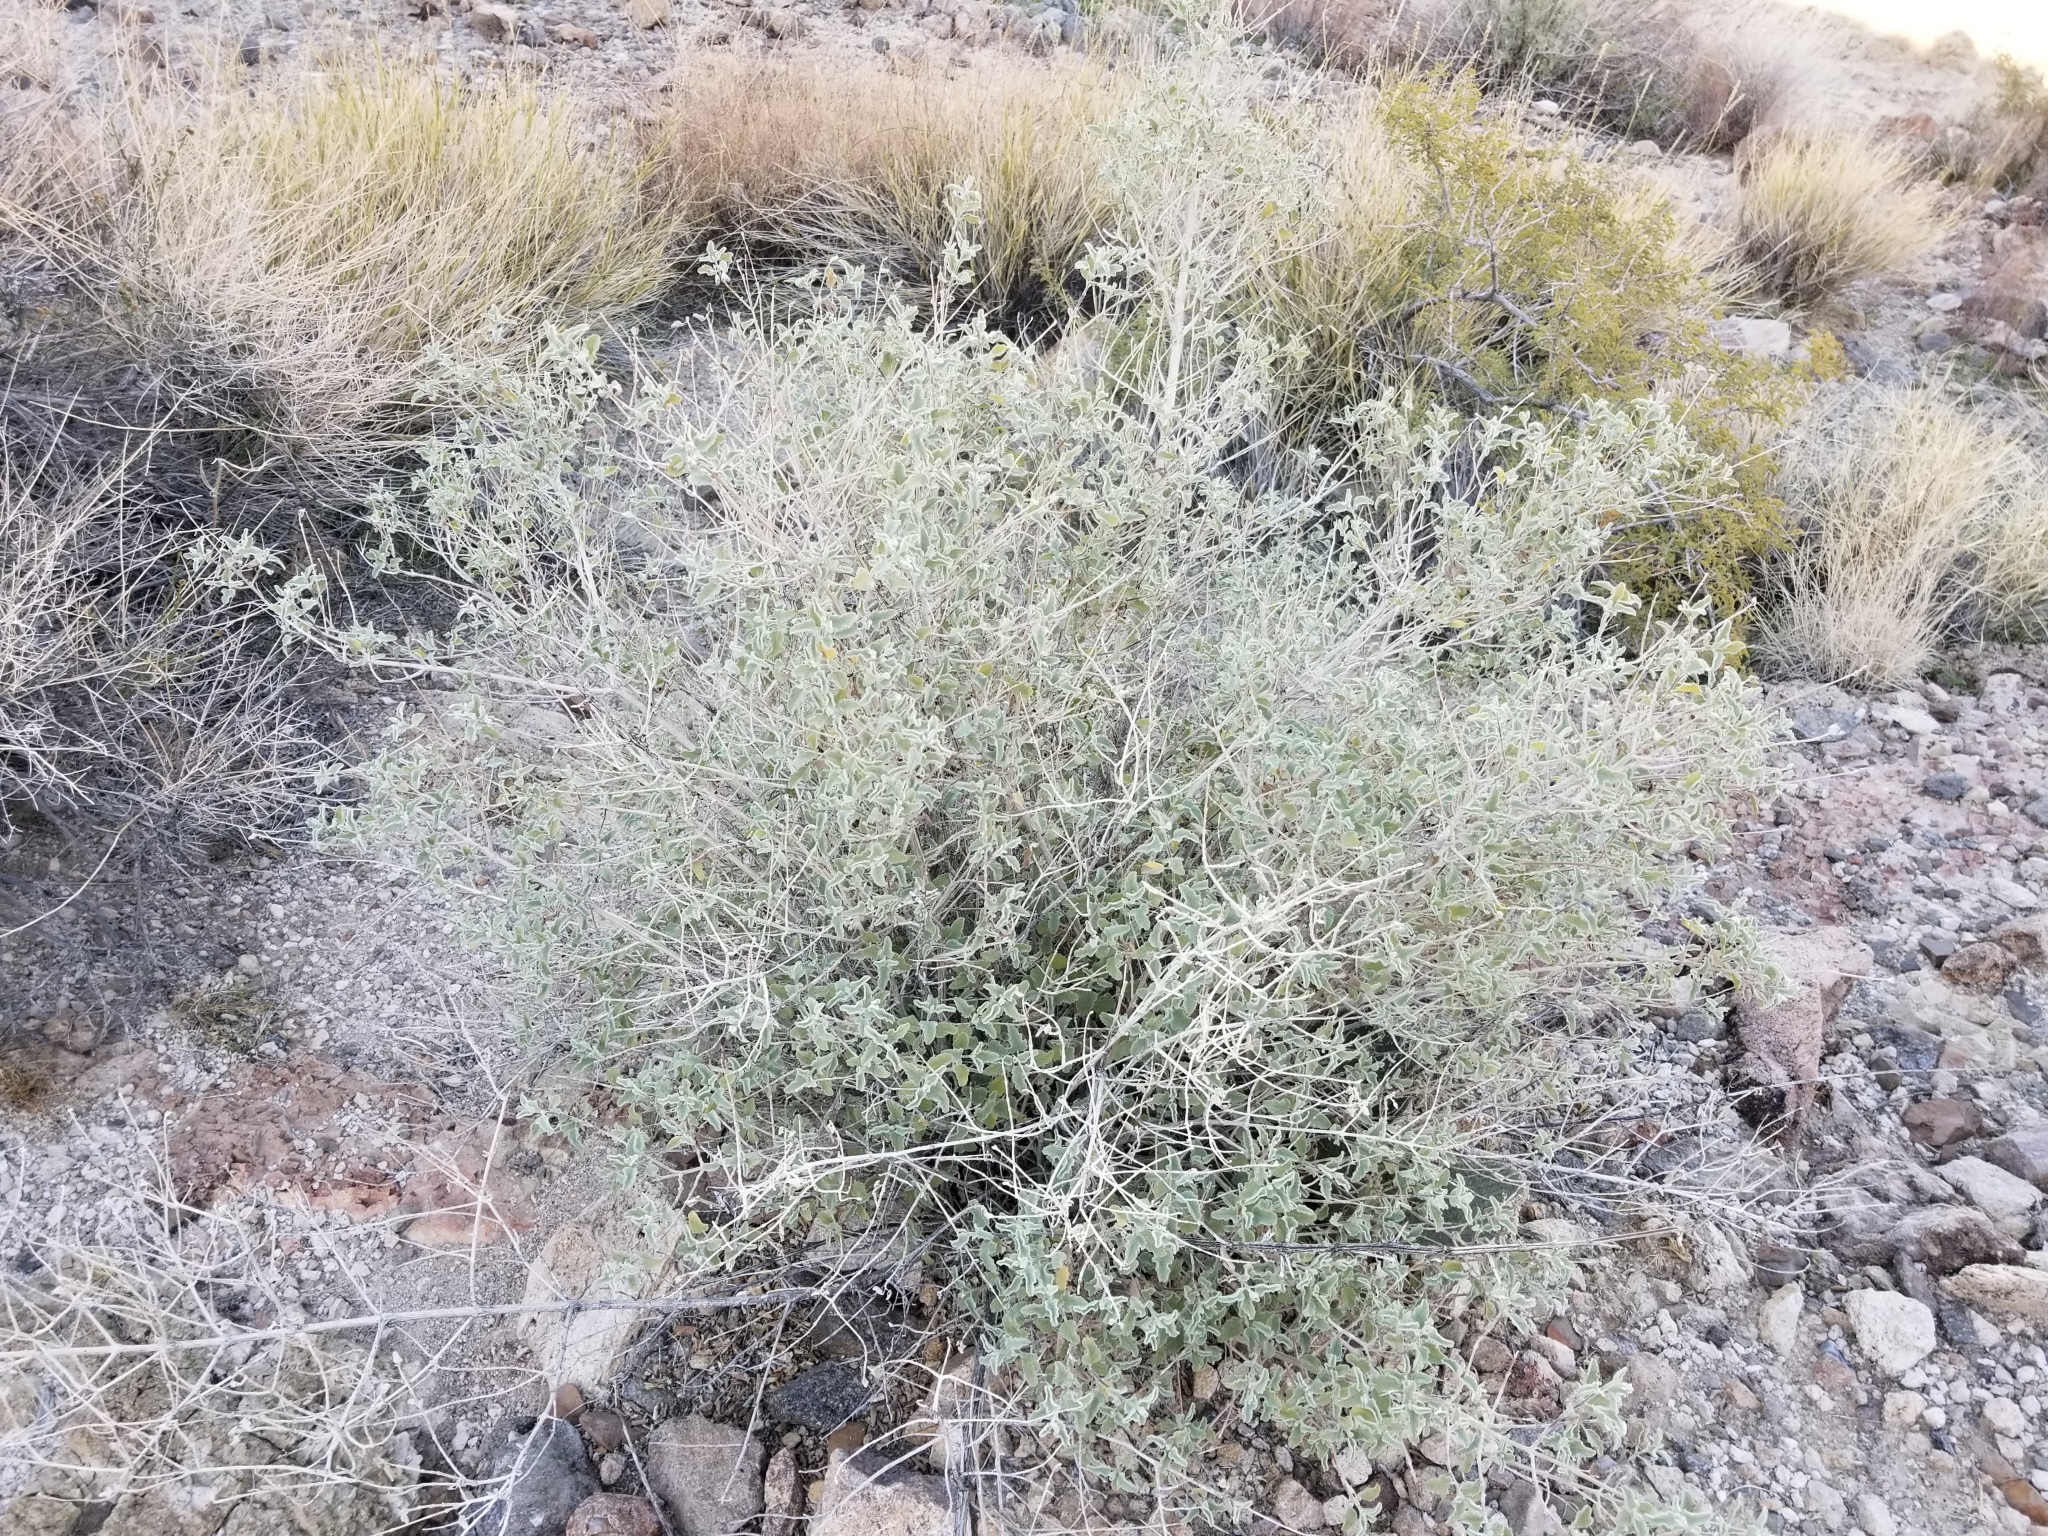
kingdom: Plantae
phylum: Tracheophyta
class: Magnoliopsida
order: Lamiales
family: Lamiaceae
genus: Condea
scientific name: Condea emoryi
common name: Chia
